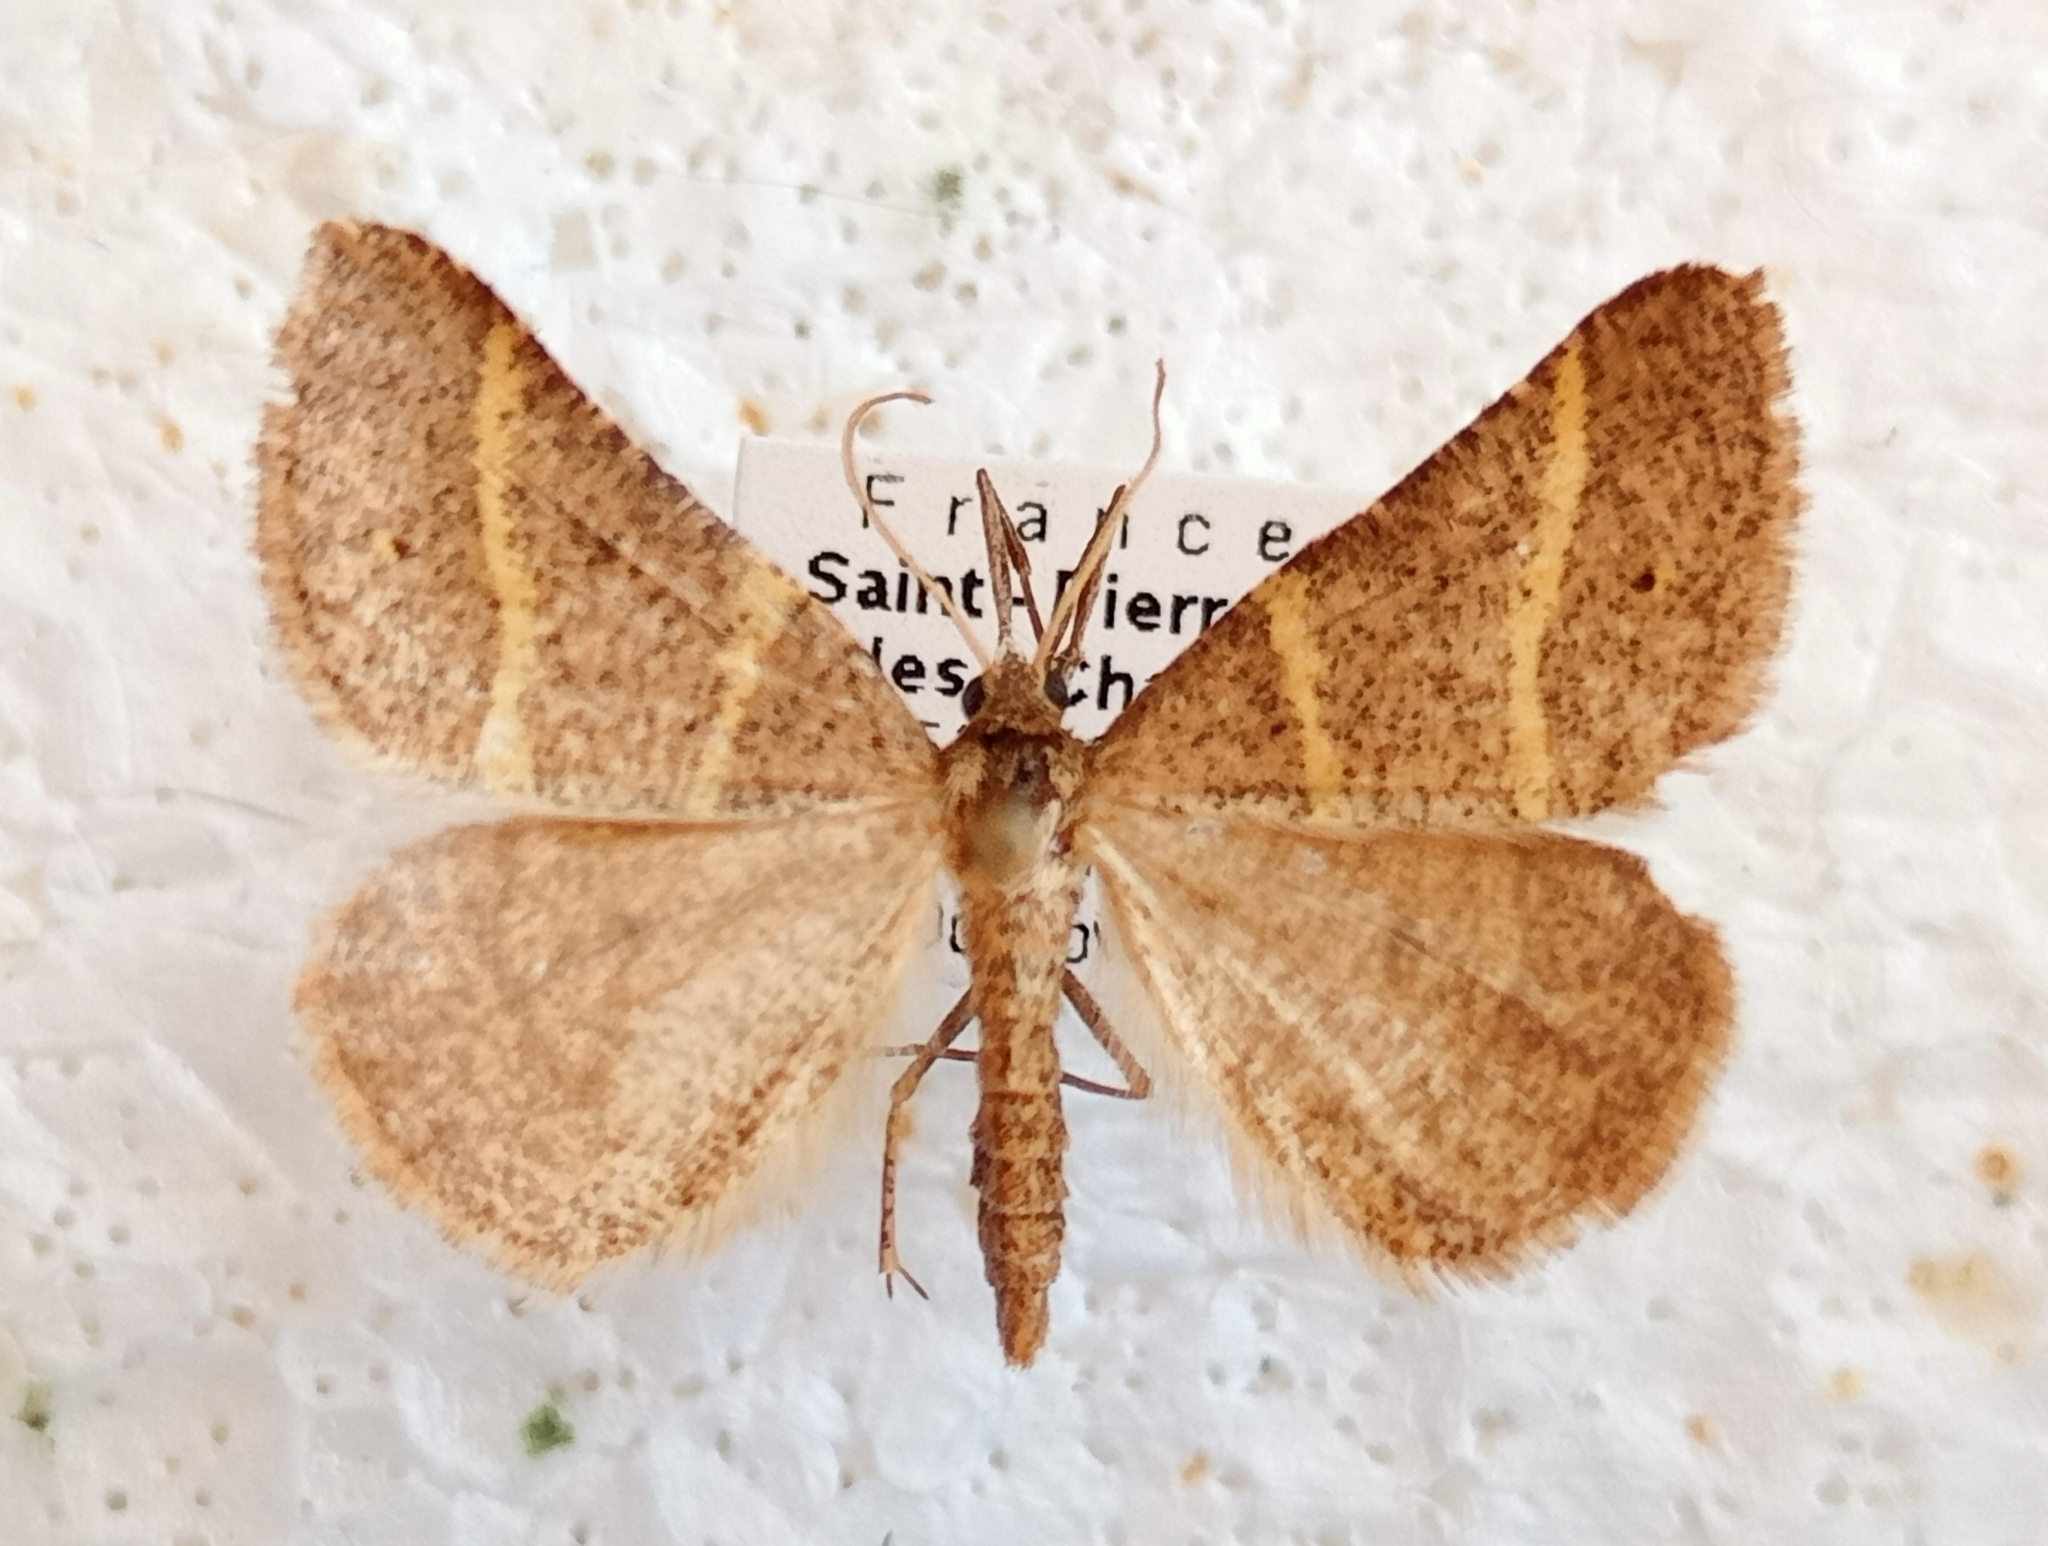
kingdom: Animalia
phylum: Arthropoda
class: Insecta
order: Lepidoptera
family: Pterophoridae
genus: Pterophorus
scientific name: Pterophorus Petrophora narbonea
